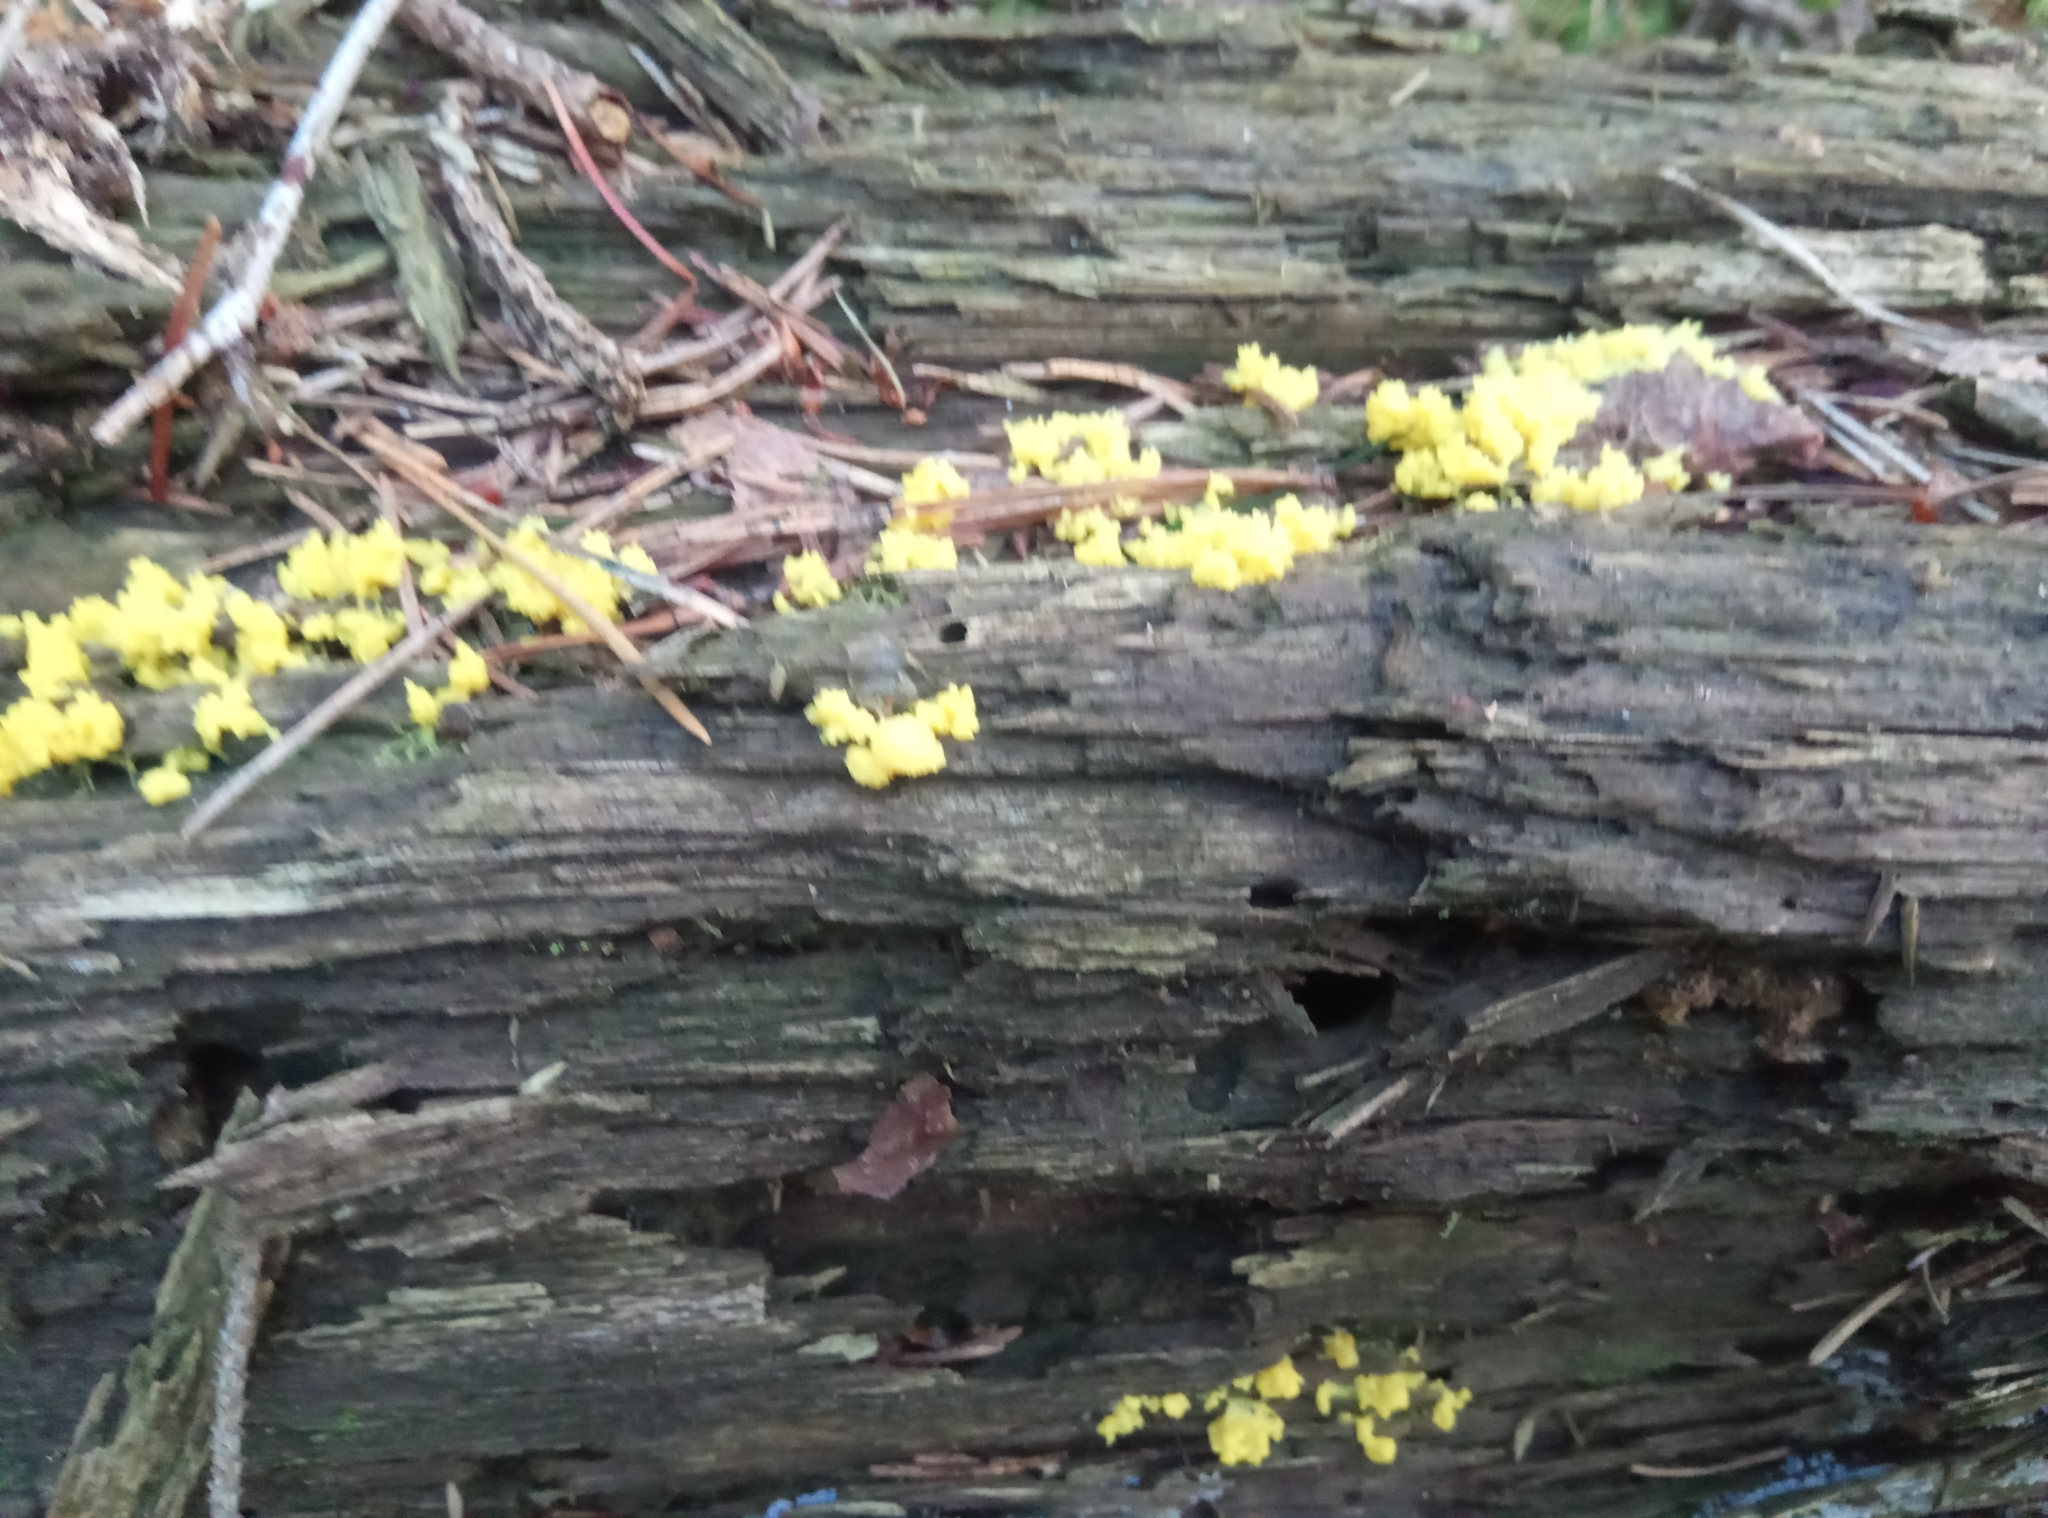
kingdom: Protozoa
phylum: Mycetozoa
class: Myxomycetes
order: Physarales
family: Physaraceae
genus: Fuligo
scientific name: Fuligo septica
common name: Dog vomit slime mold
